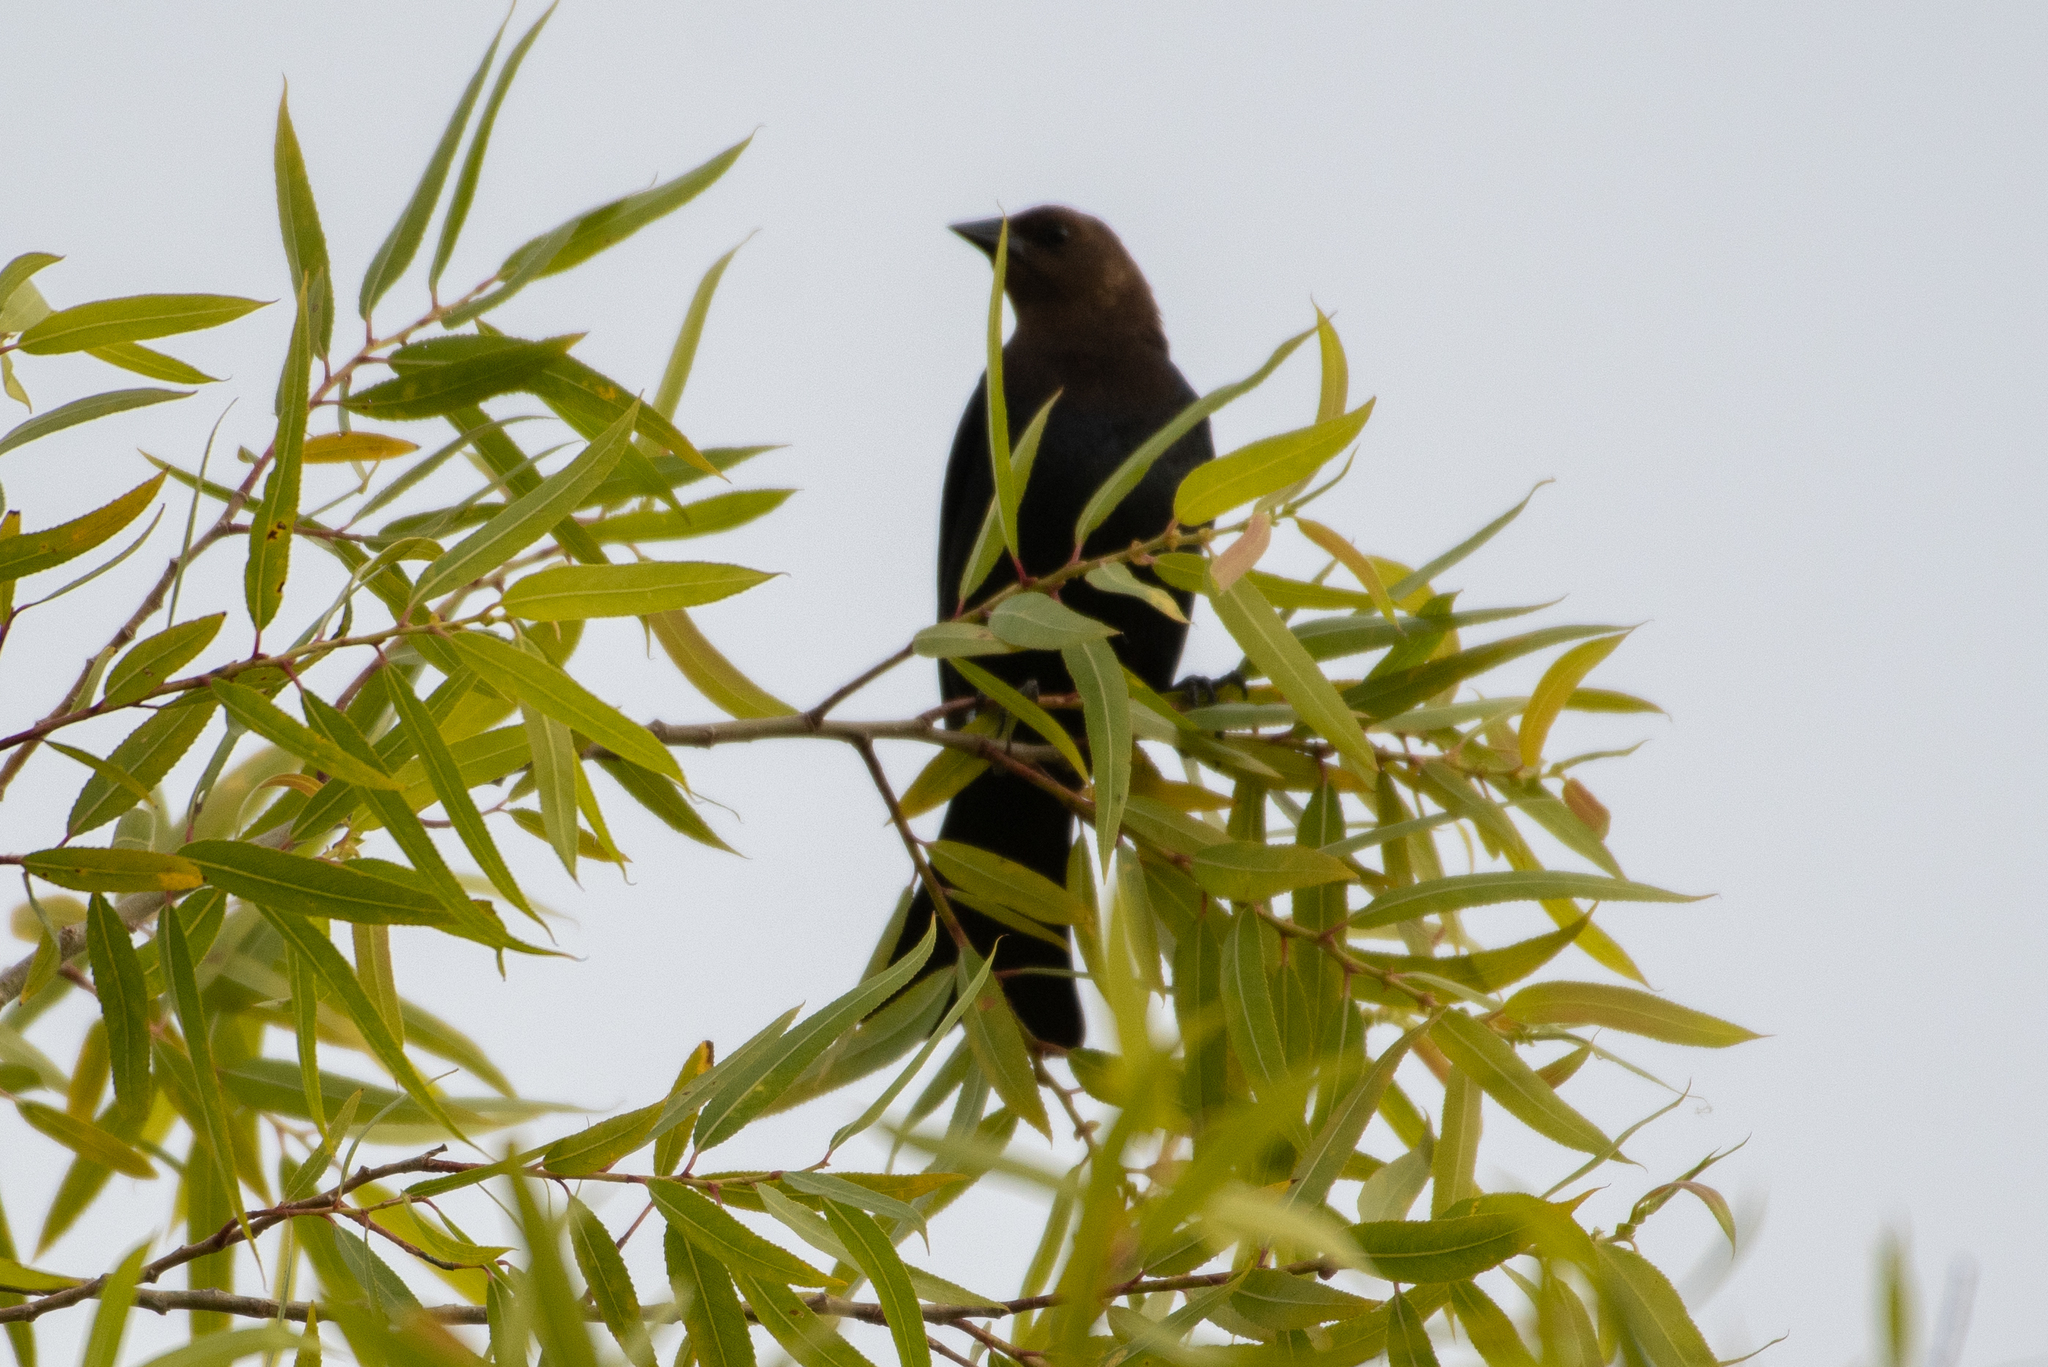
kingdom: Animalia
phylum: Chordata
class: Aves
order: Passeriformes
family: Icteridae
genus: Molothrus
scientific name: Molothrus ater
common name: Brown-headed cowbird
